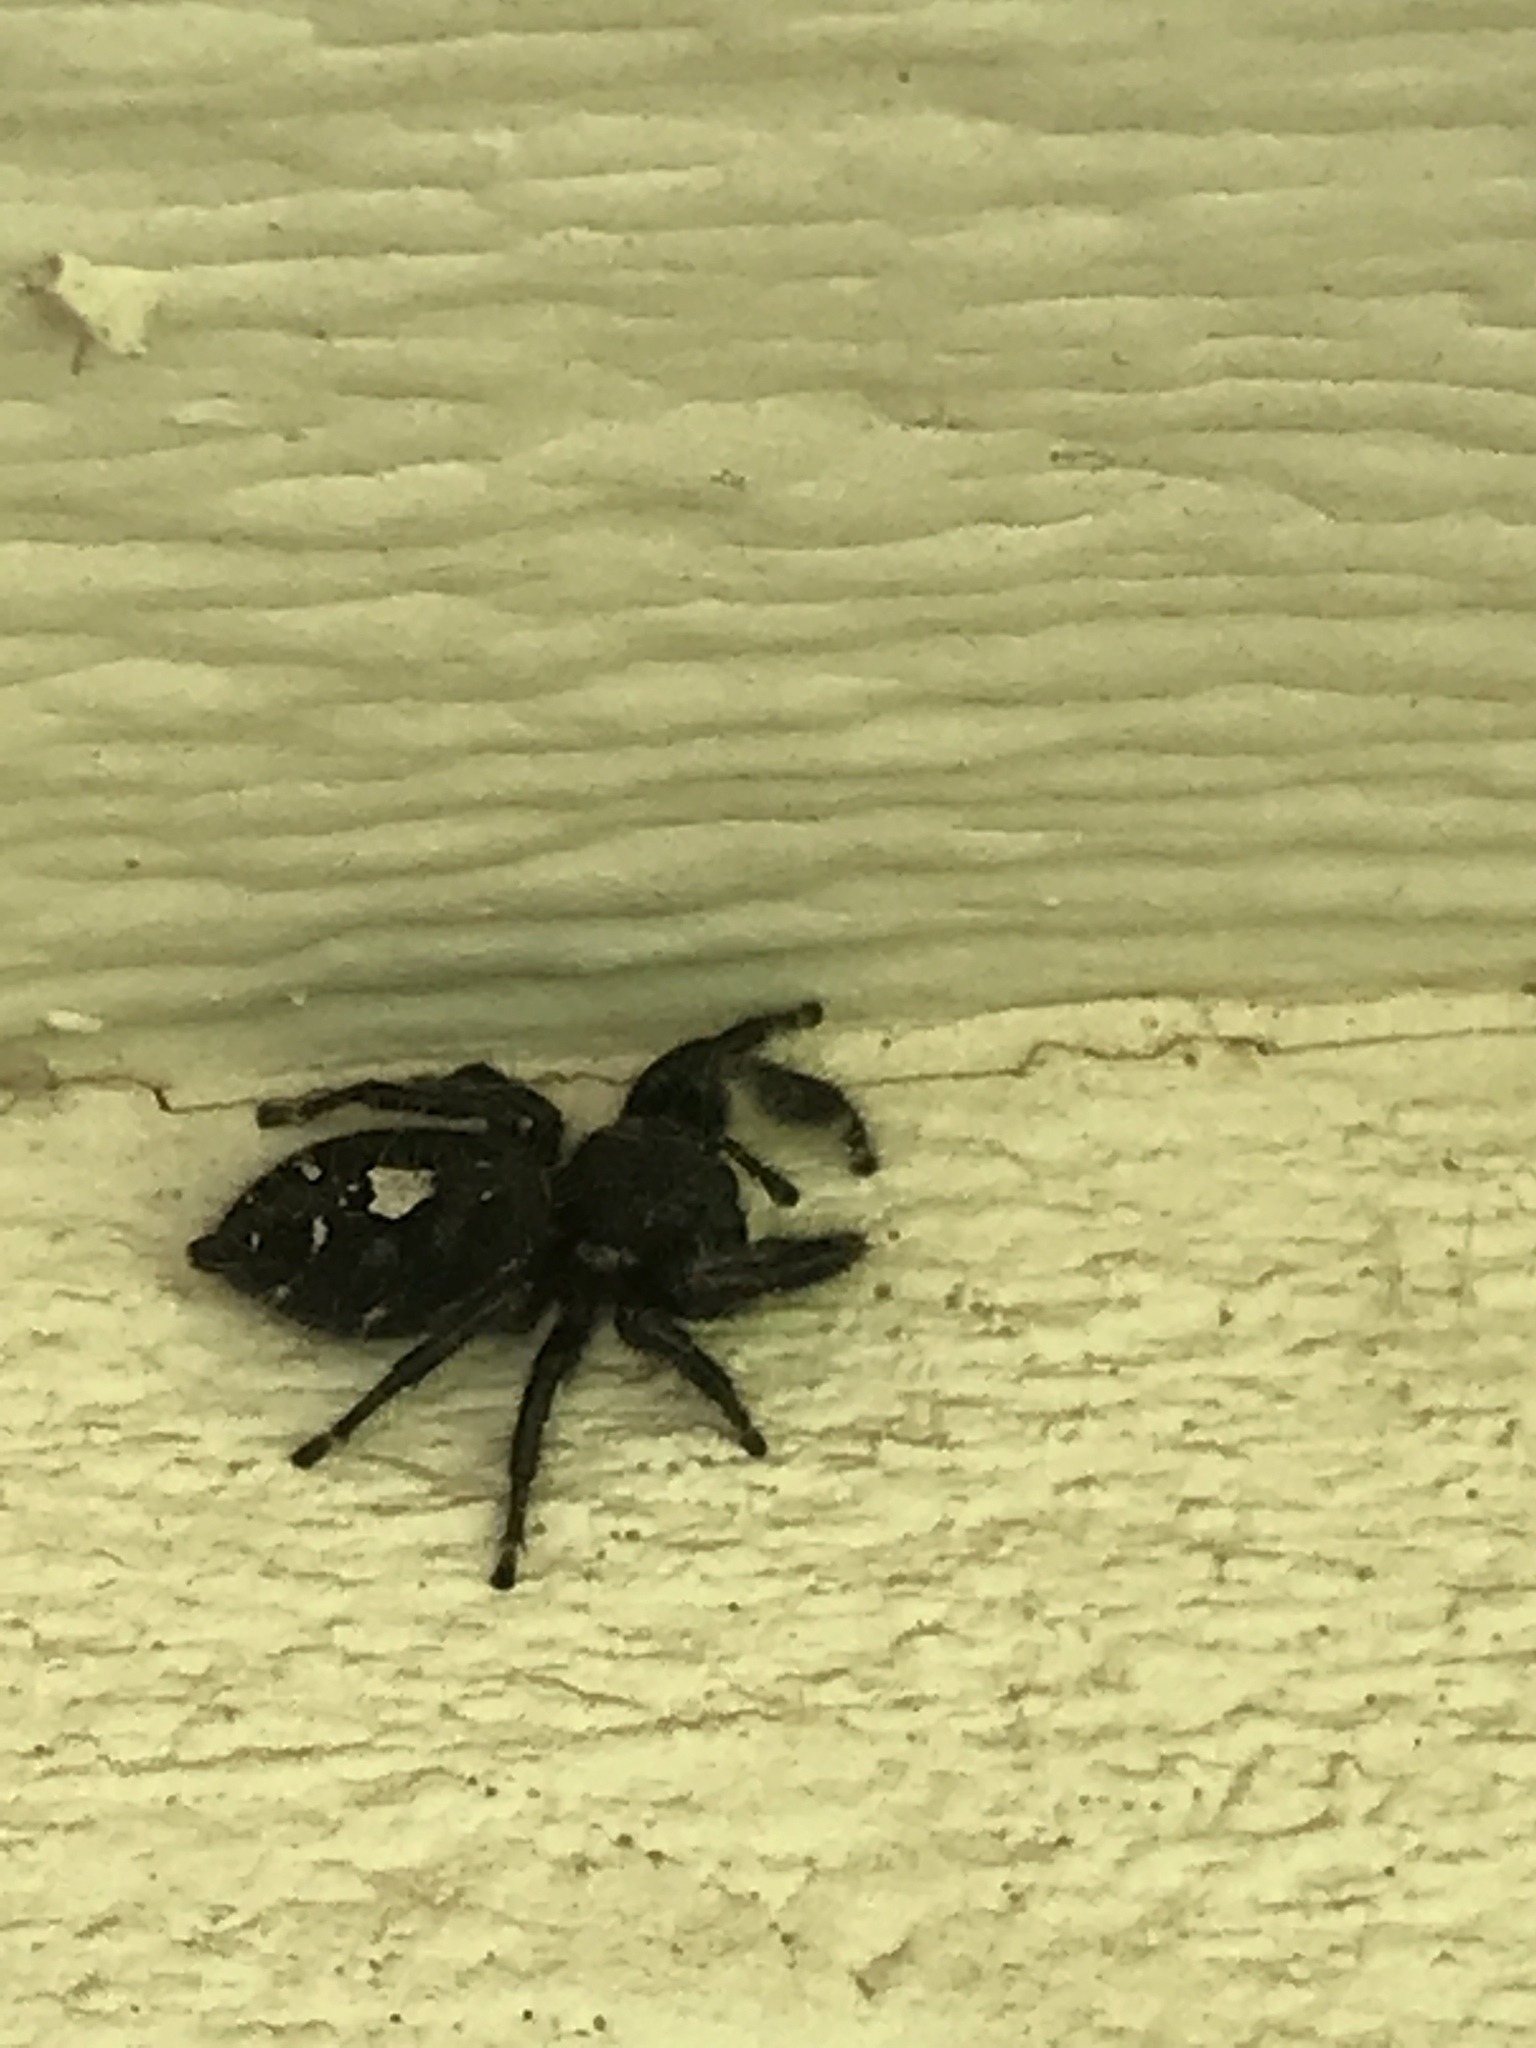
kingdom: Animalia
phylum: Arthropoda
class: Arachnida
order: Araneae
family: Salticidae
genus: Phidippus
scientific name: Phidippus audax
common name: Bold jumper
